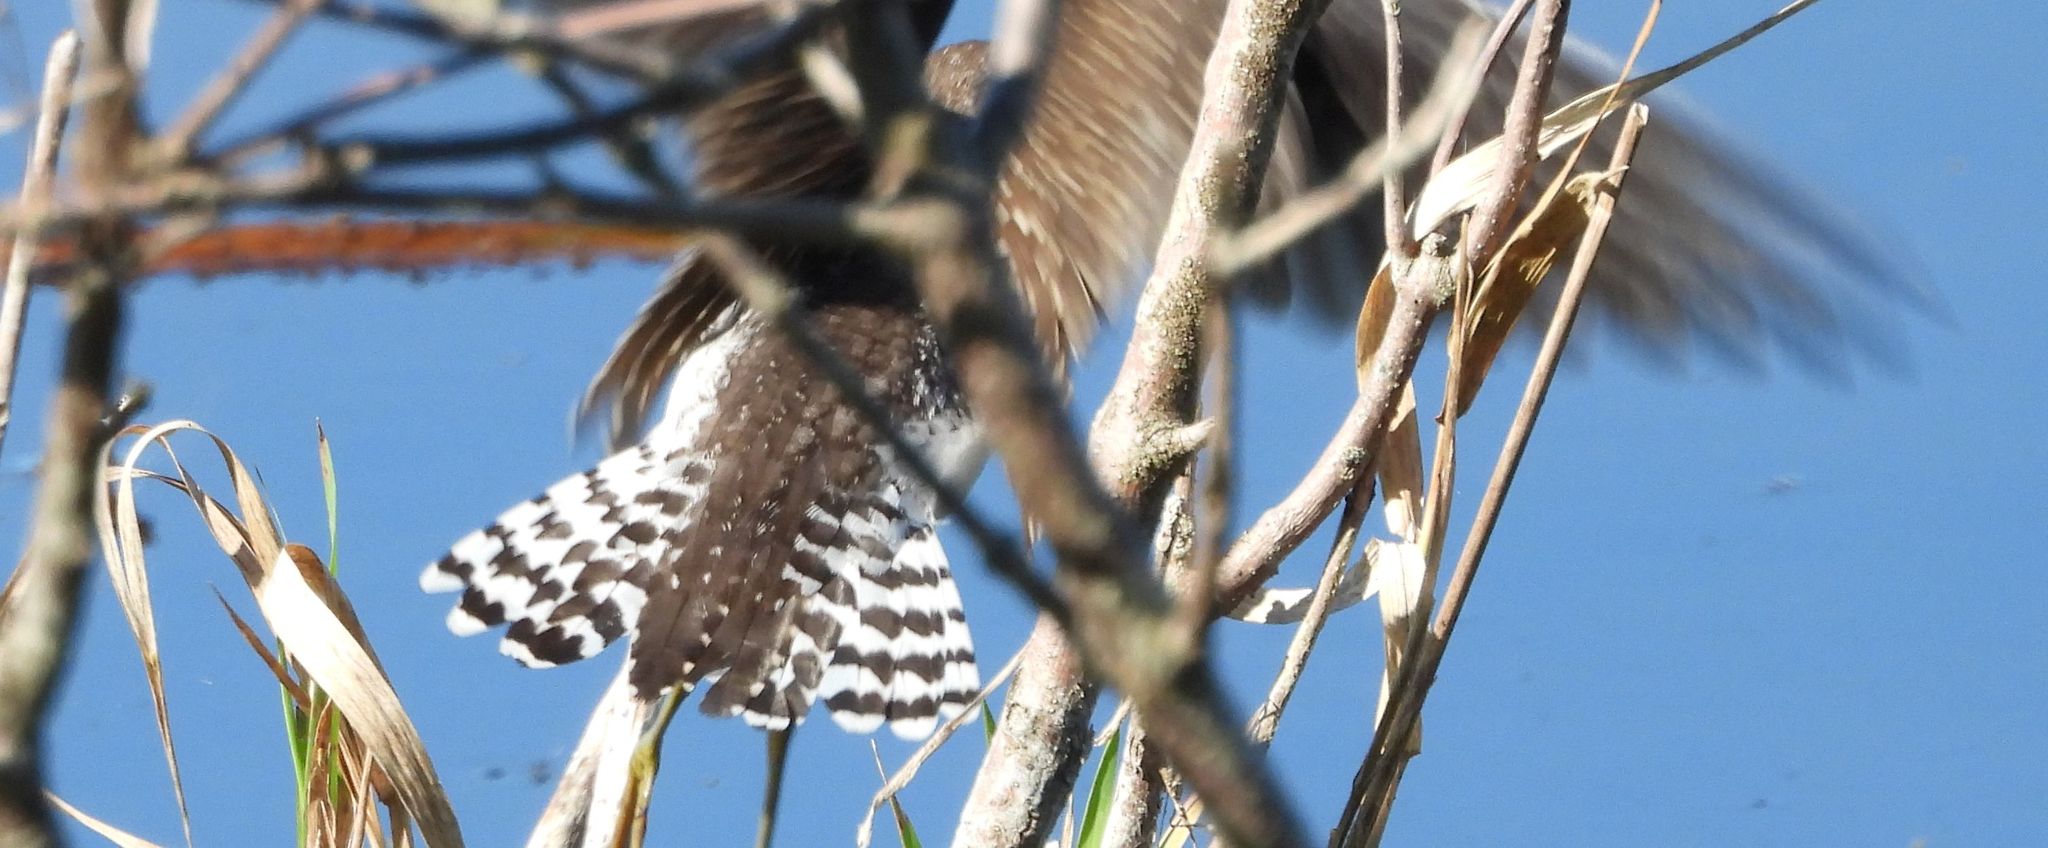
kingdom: Animalia
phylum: Chordata
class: Aves
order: Charadriiformes
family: Scolopacidae
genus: Tringa
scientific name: Tringa solitaria
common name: Solitary sandpiper
